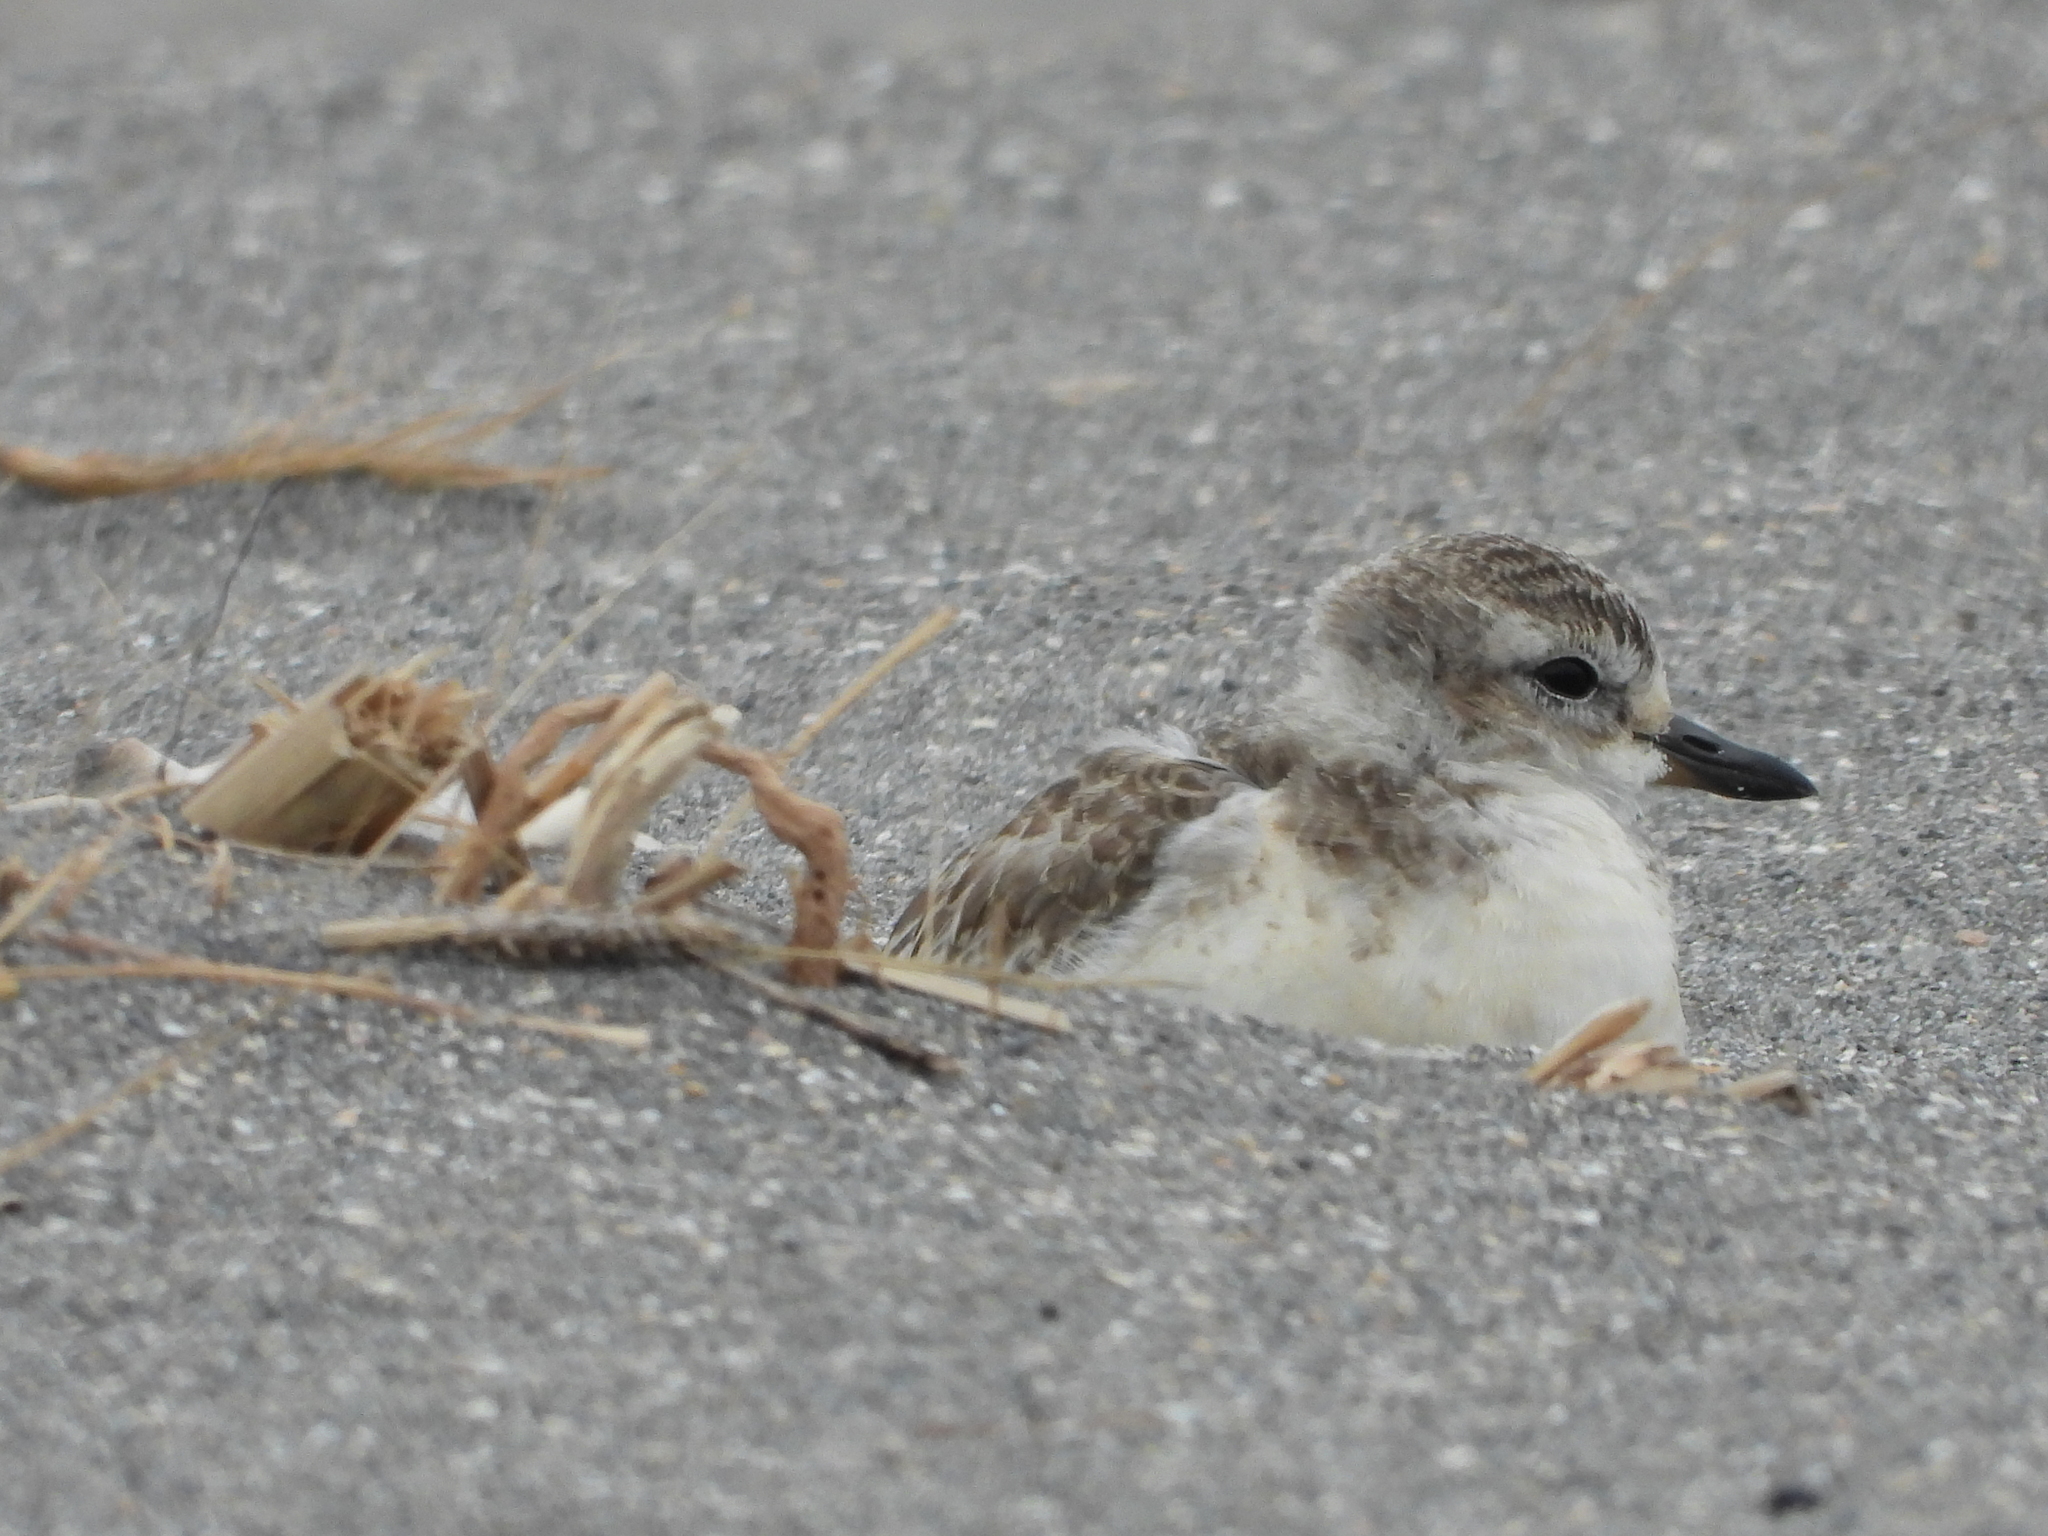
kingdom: Animalia
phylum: Chordata
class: Aves
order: Charadriiformes
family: Charadriidae
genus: Anarhynchus
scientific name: Anarhynchus
